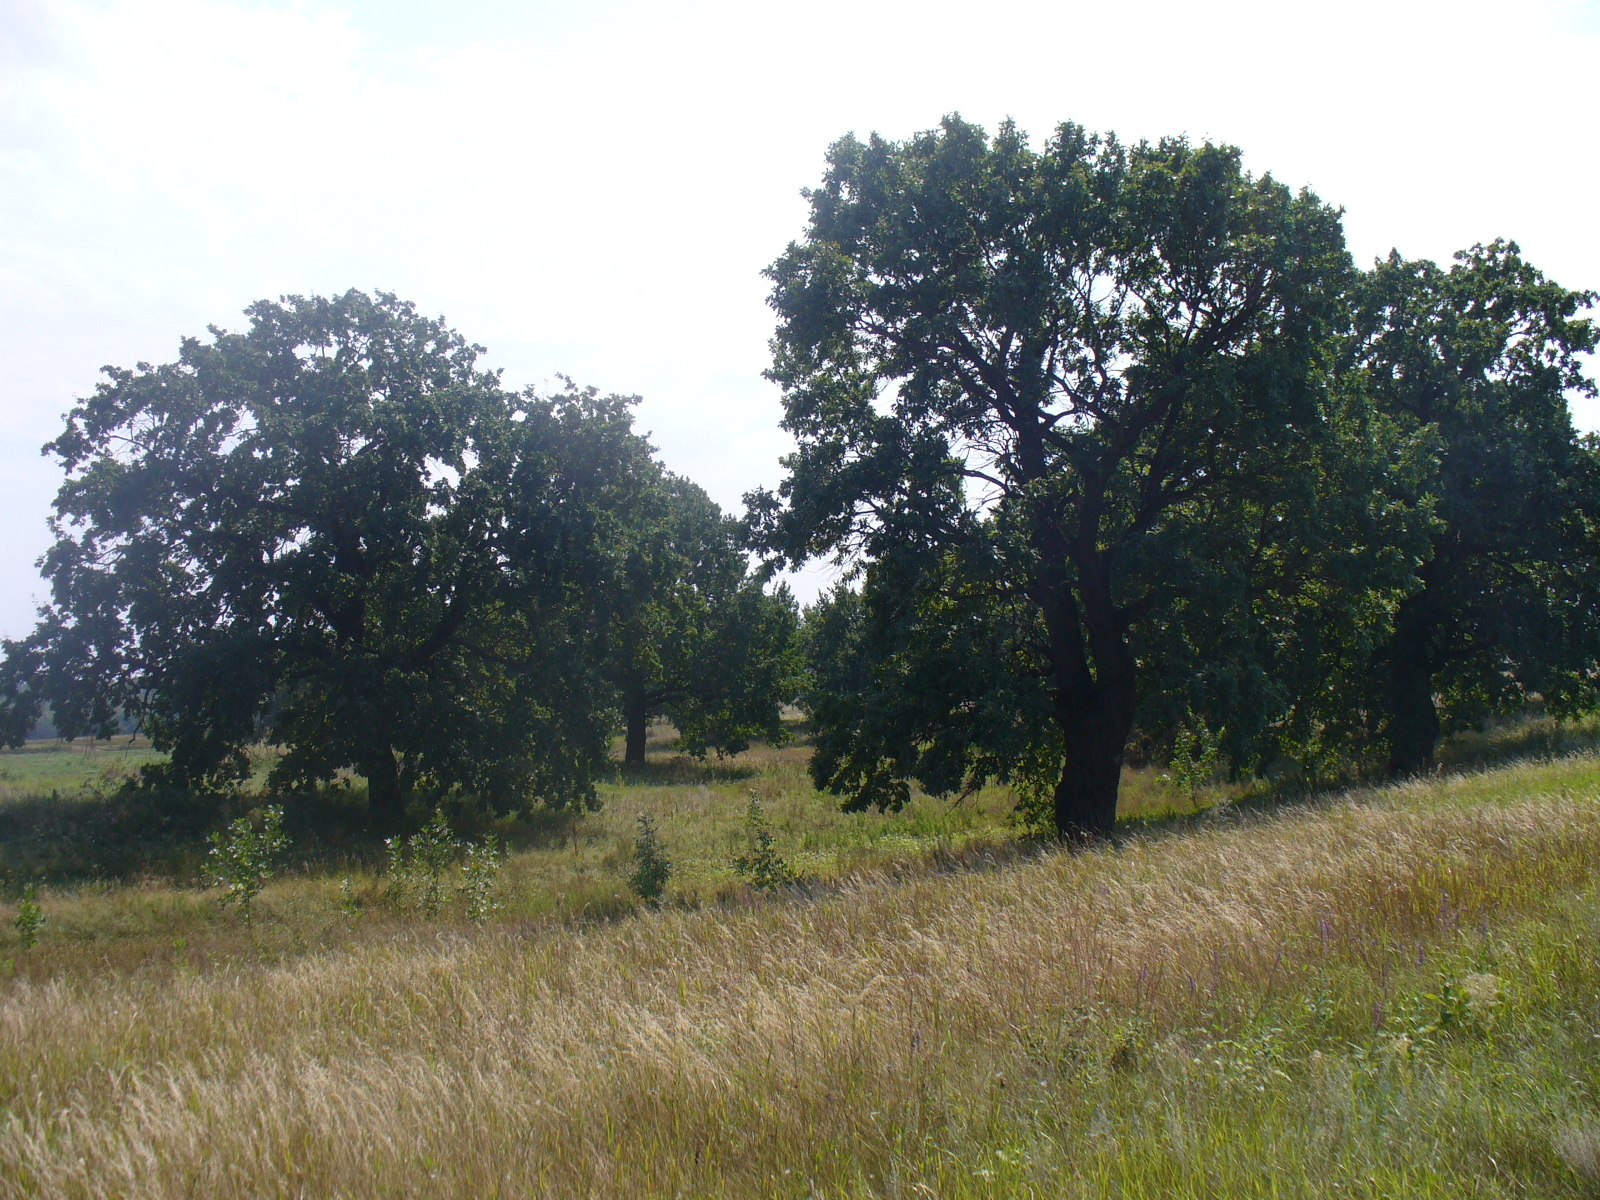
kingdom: Plantae
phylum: Tracheophyta
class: Magnoliopsida
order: Fagales
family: Fagaceae
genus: Quercus
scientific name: Quercus robur
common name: Pedunculate oak
